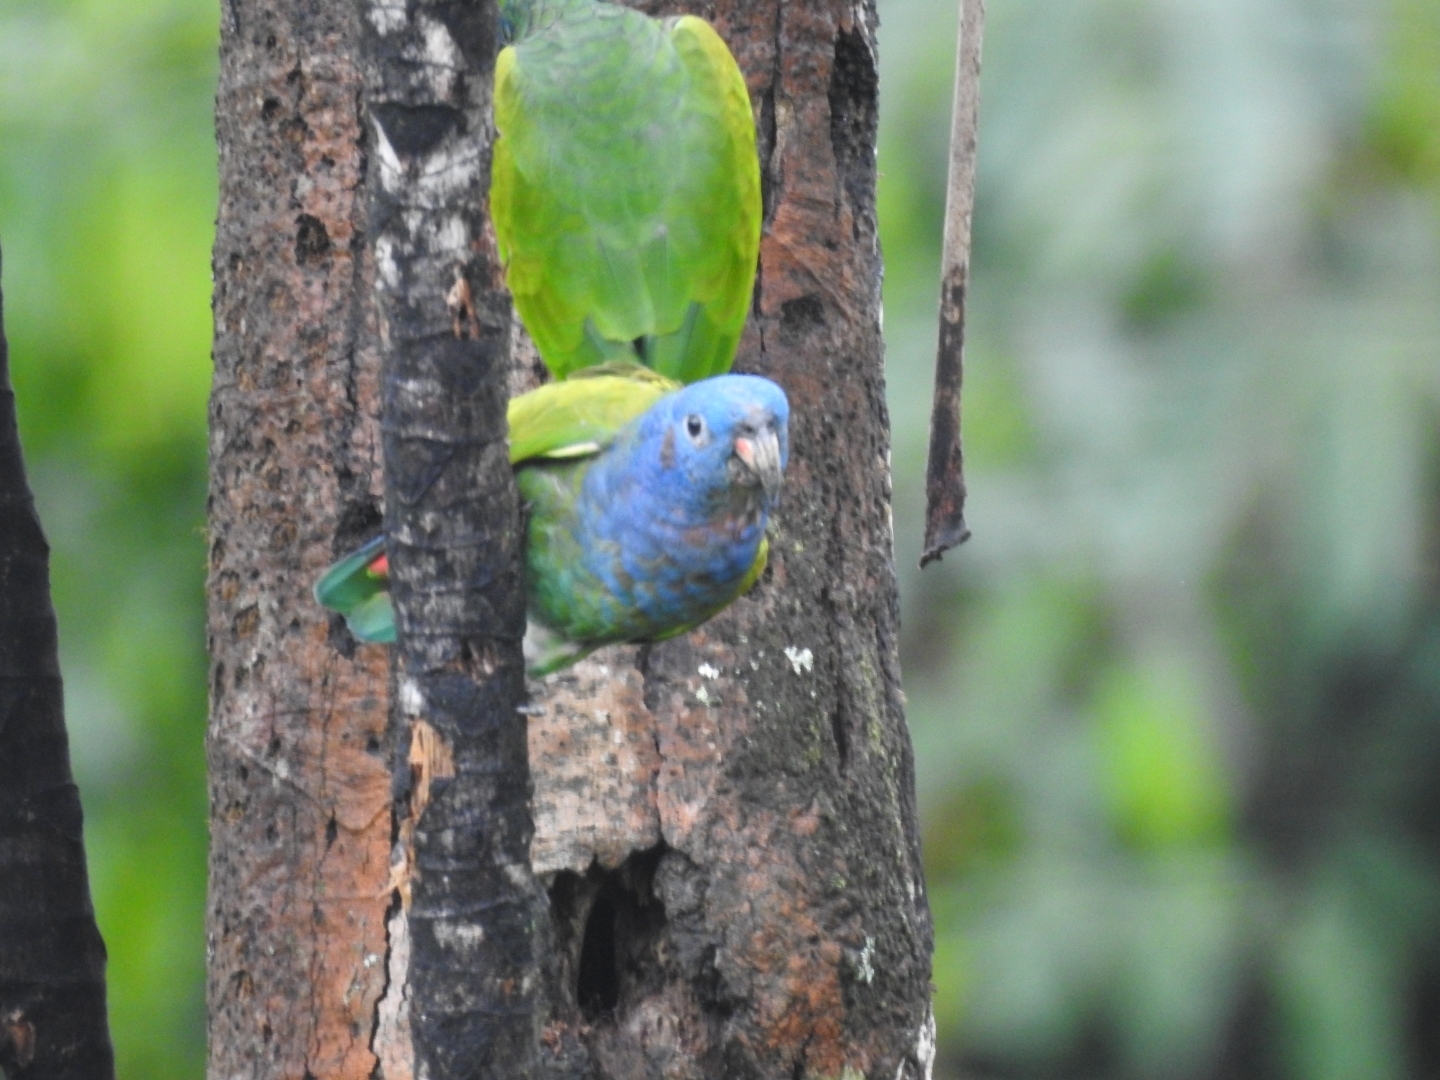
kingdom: Animalia
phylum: Chordata
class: Aves
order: Psittaciformes
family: Psittacidae
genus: Pionus
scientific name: Pionus menstruus
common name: Blue-headed parrot
